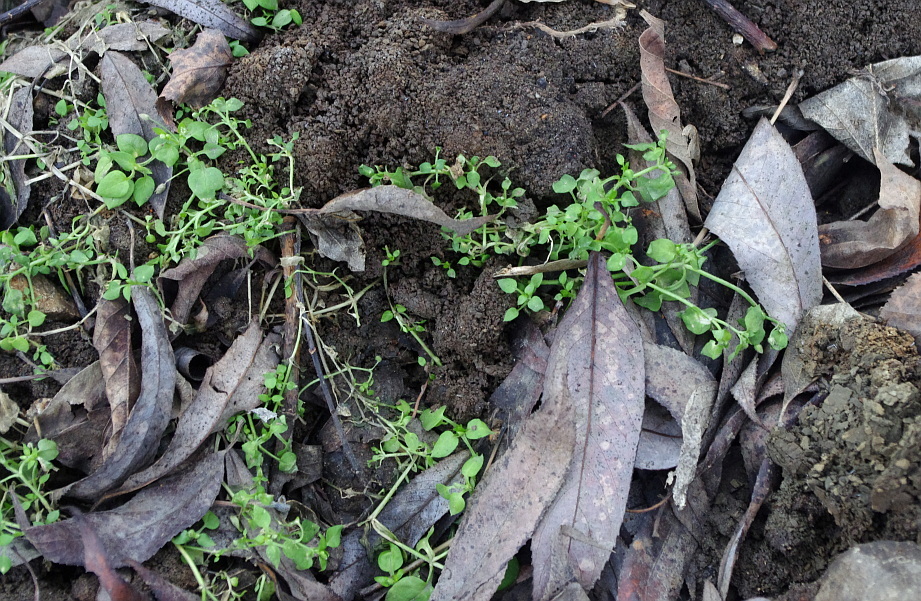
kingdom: Plantae
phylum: Tracheophyta
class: Magnoliopsida
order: Caryophyllales
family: Caryophyllaceae
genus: Stellaria
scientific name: Stellaria media
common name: Common chickweed
